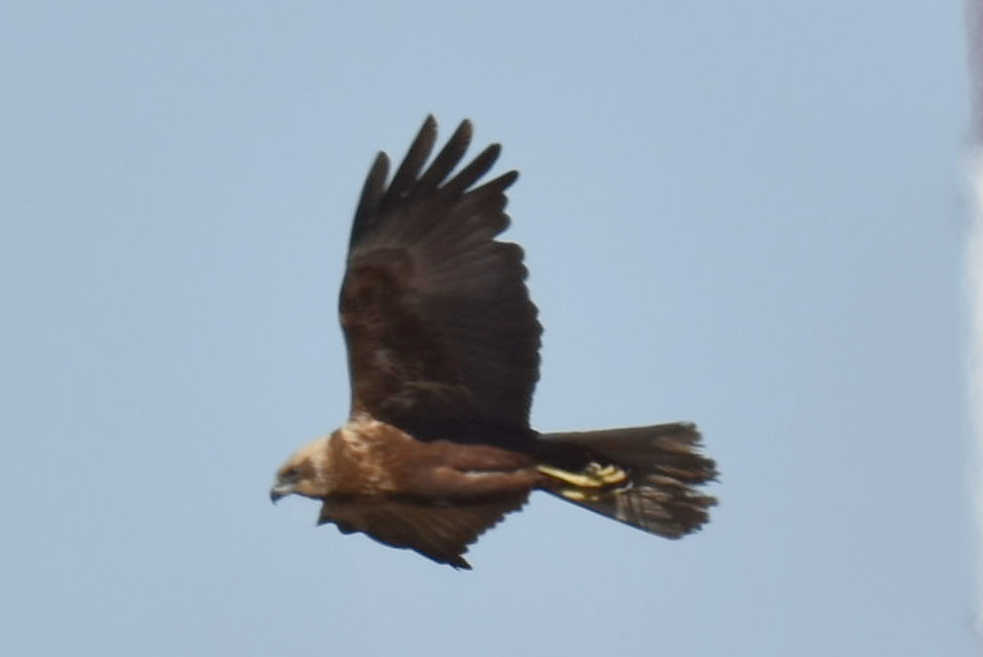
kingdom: Animalia
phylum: Chordata
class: Aves
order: Accipitriformes
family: Accipitridae
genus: Circus
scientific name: Circus aeruginosus
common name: Western marsh harrier
